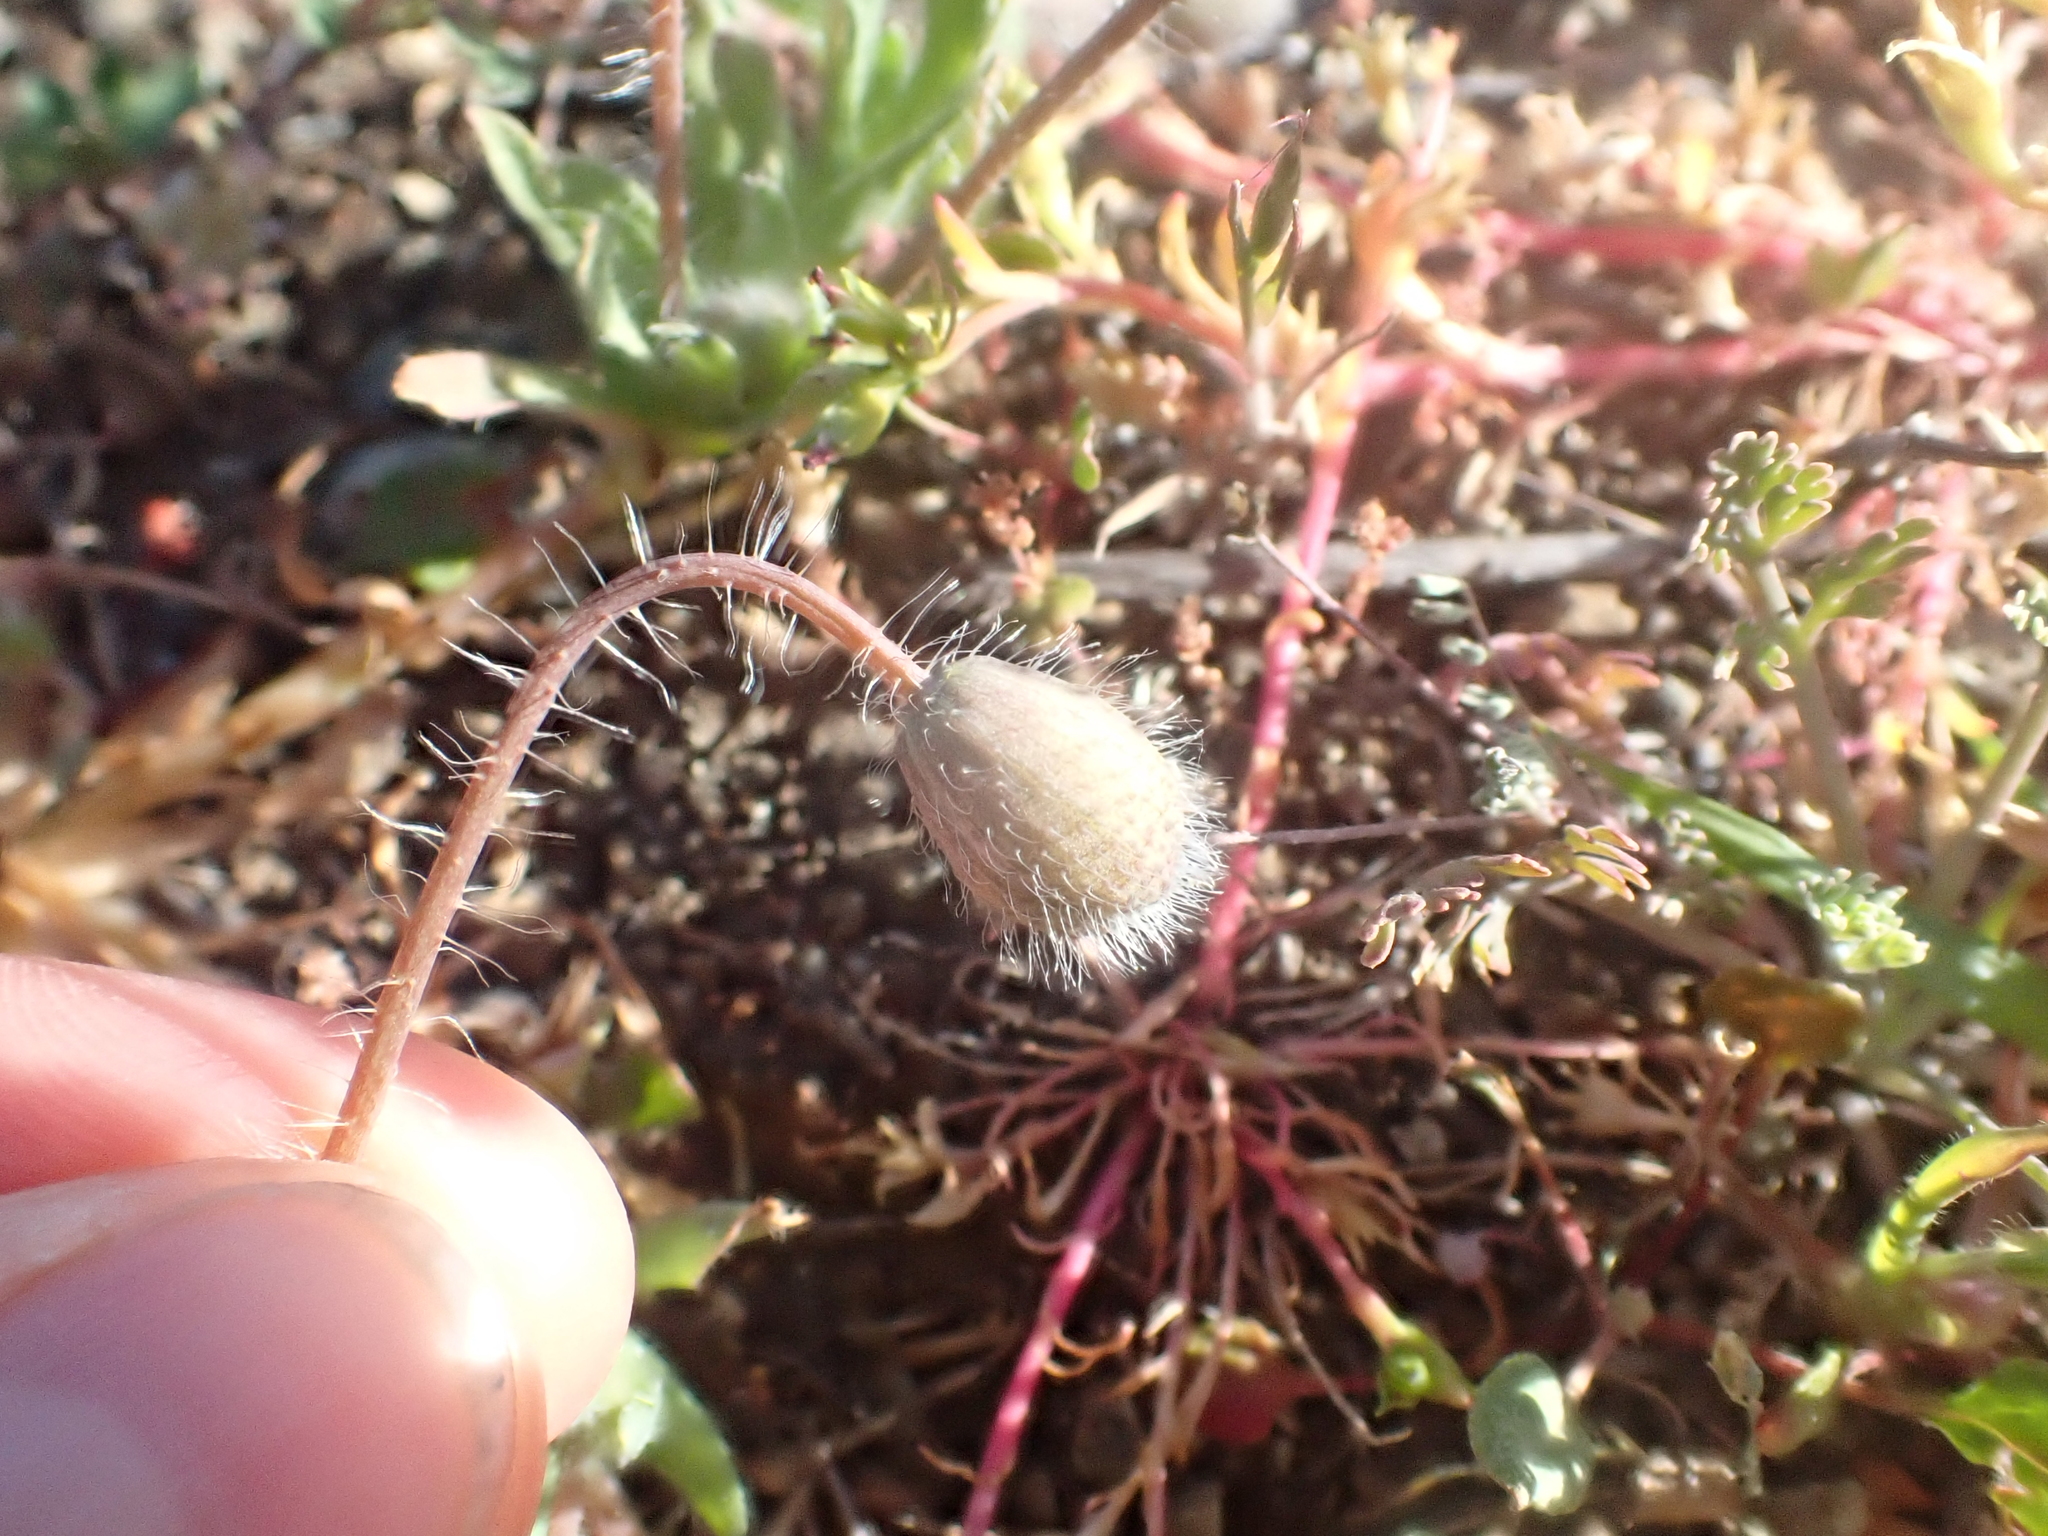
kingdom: Plantae
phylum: Tracheophyta
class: Magnoliopsida
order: Ranunculales
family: Papaveraceae
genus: Platystemon
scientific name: Platystemon californicus
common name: Cream-cups
